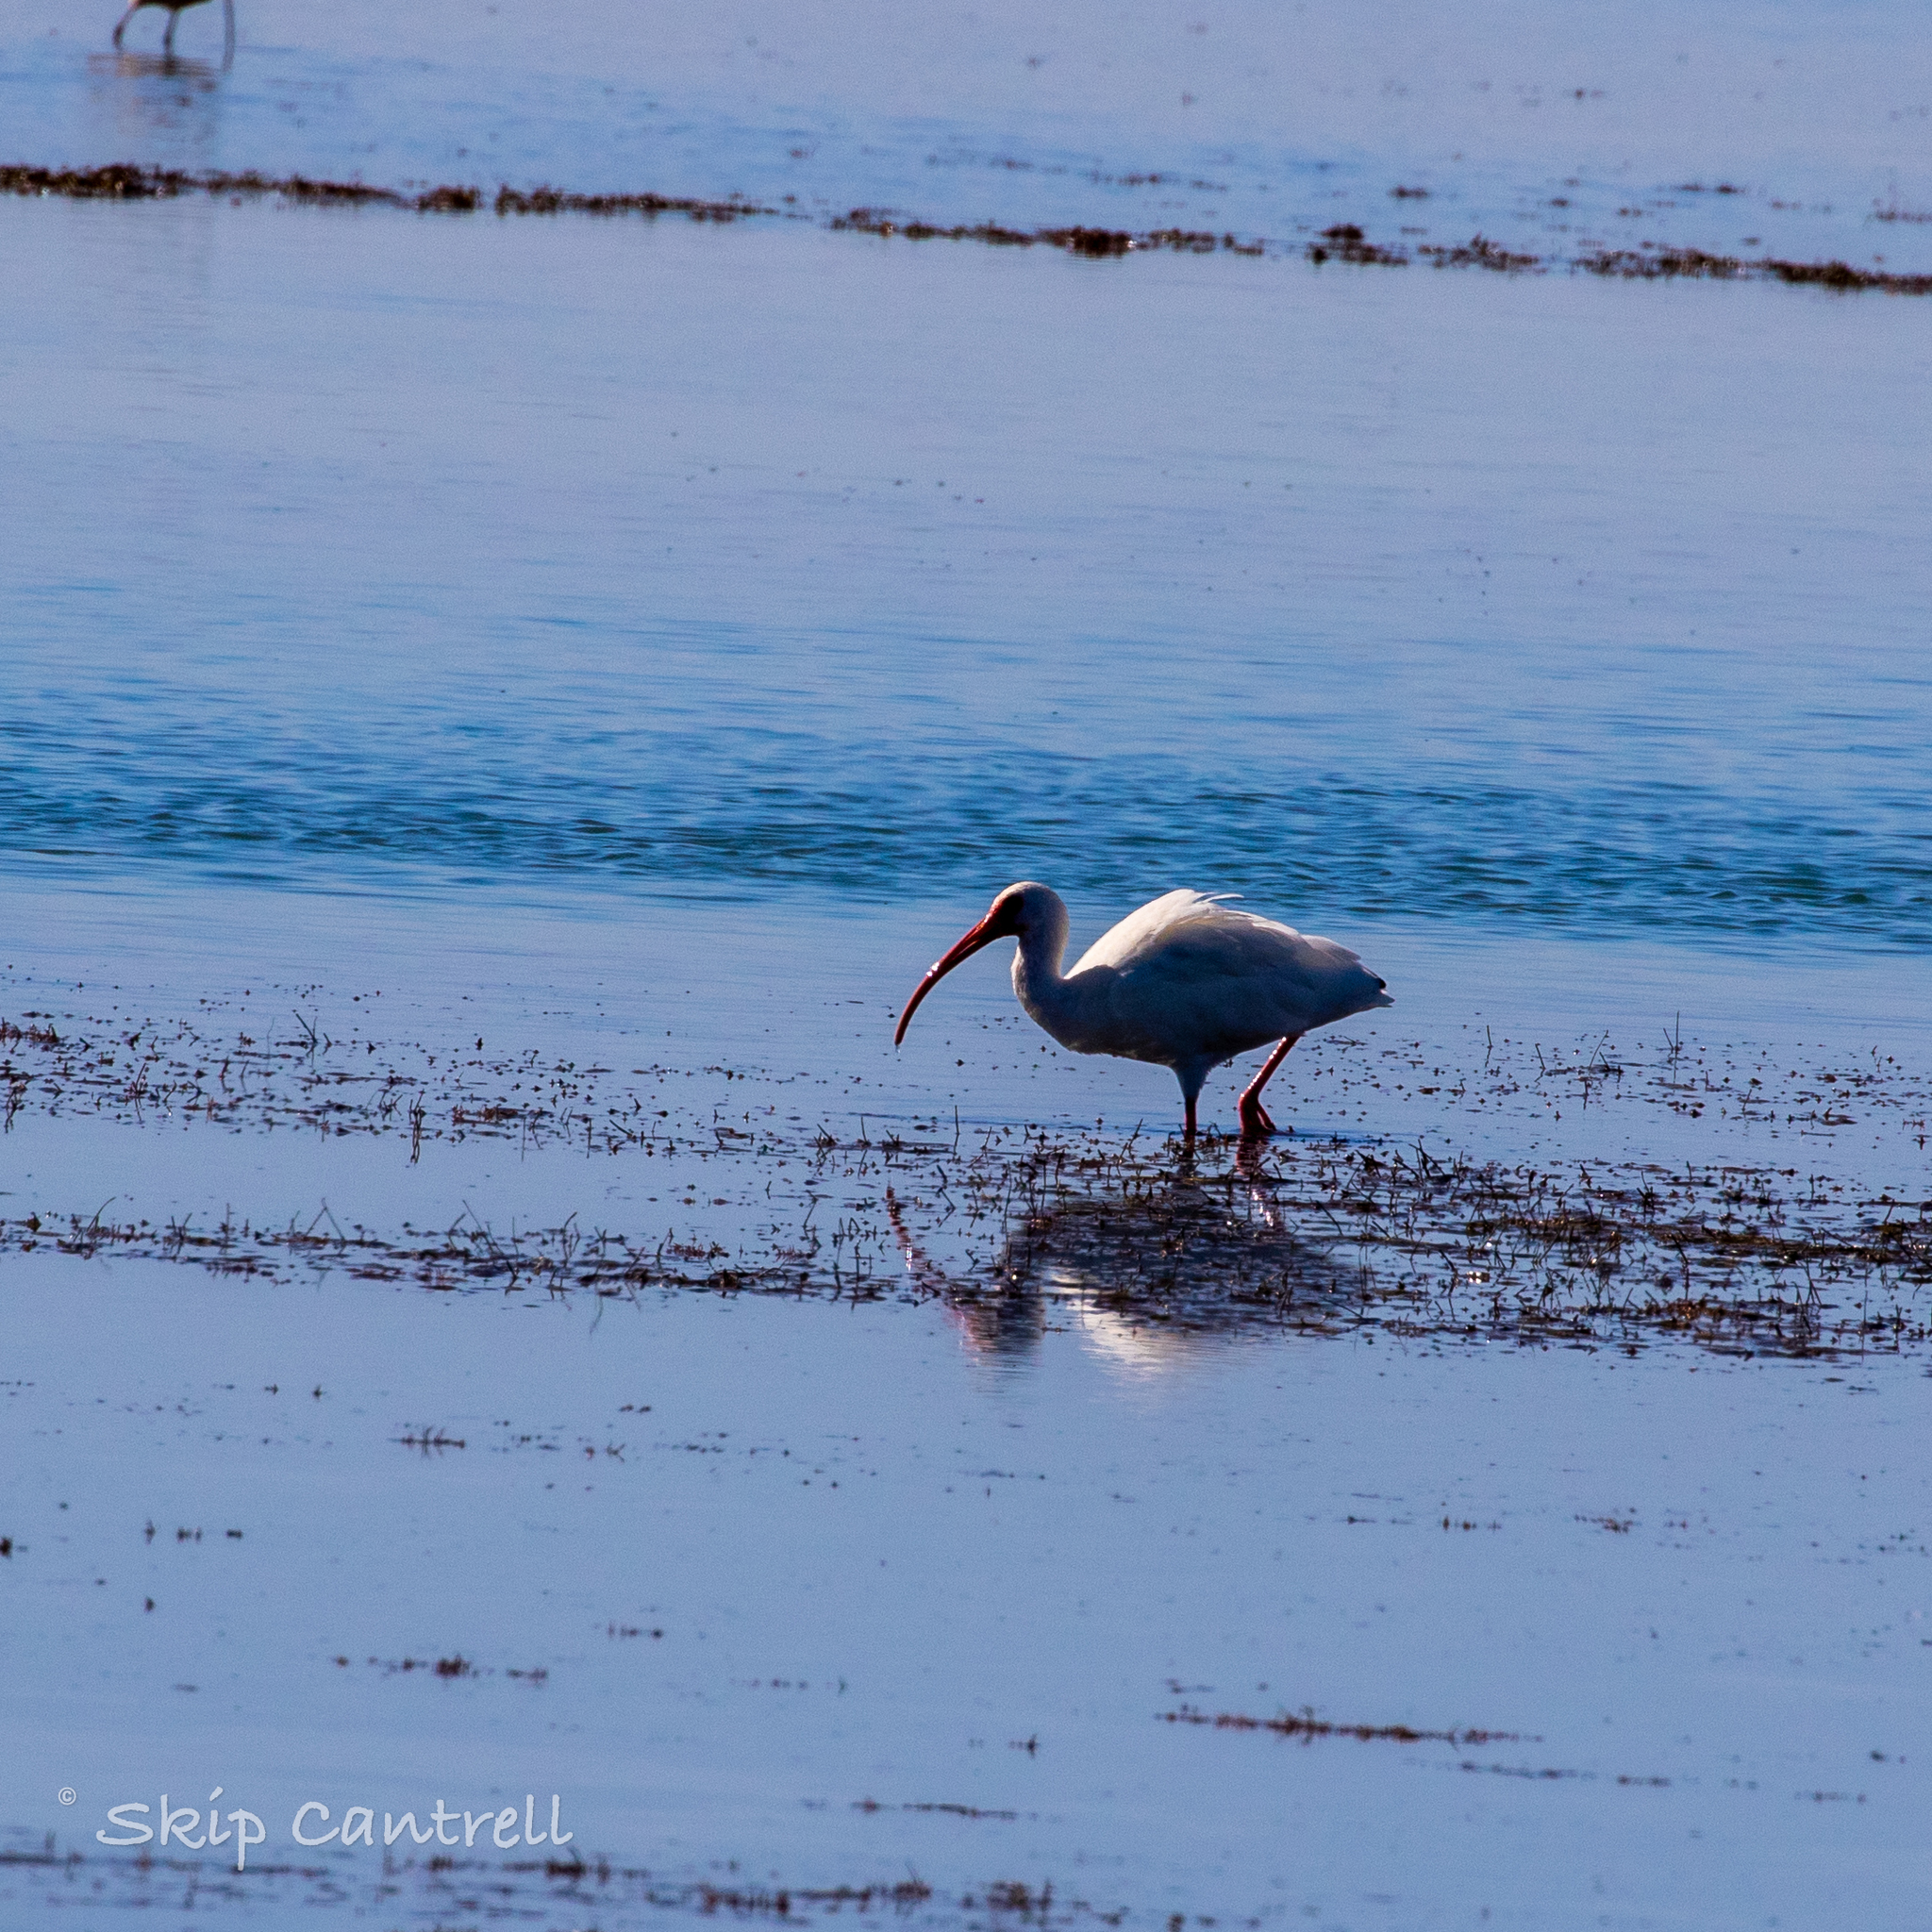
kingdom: Animalia
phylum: Chordata
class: Aves
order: Pelecaniformes
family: Threskiornithidae
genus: Eudocimus
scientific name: Eudocimus albus
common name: White ibis
